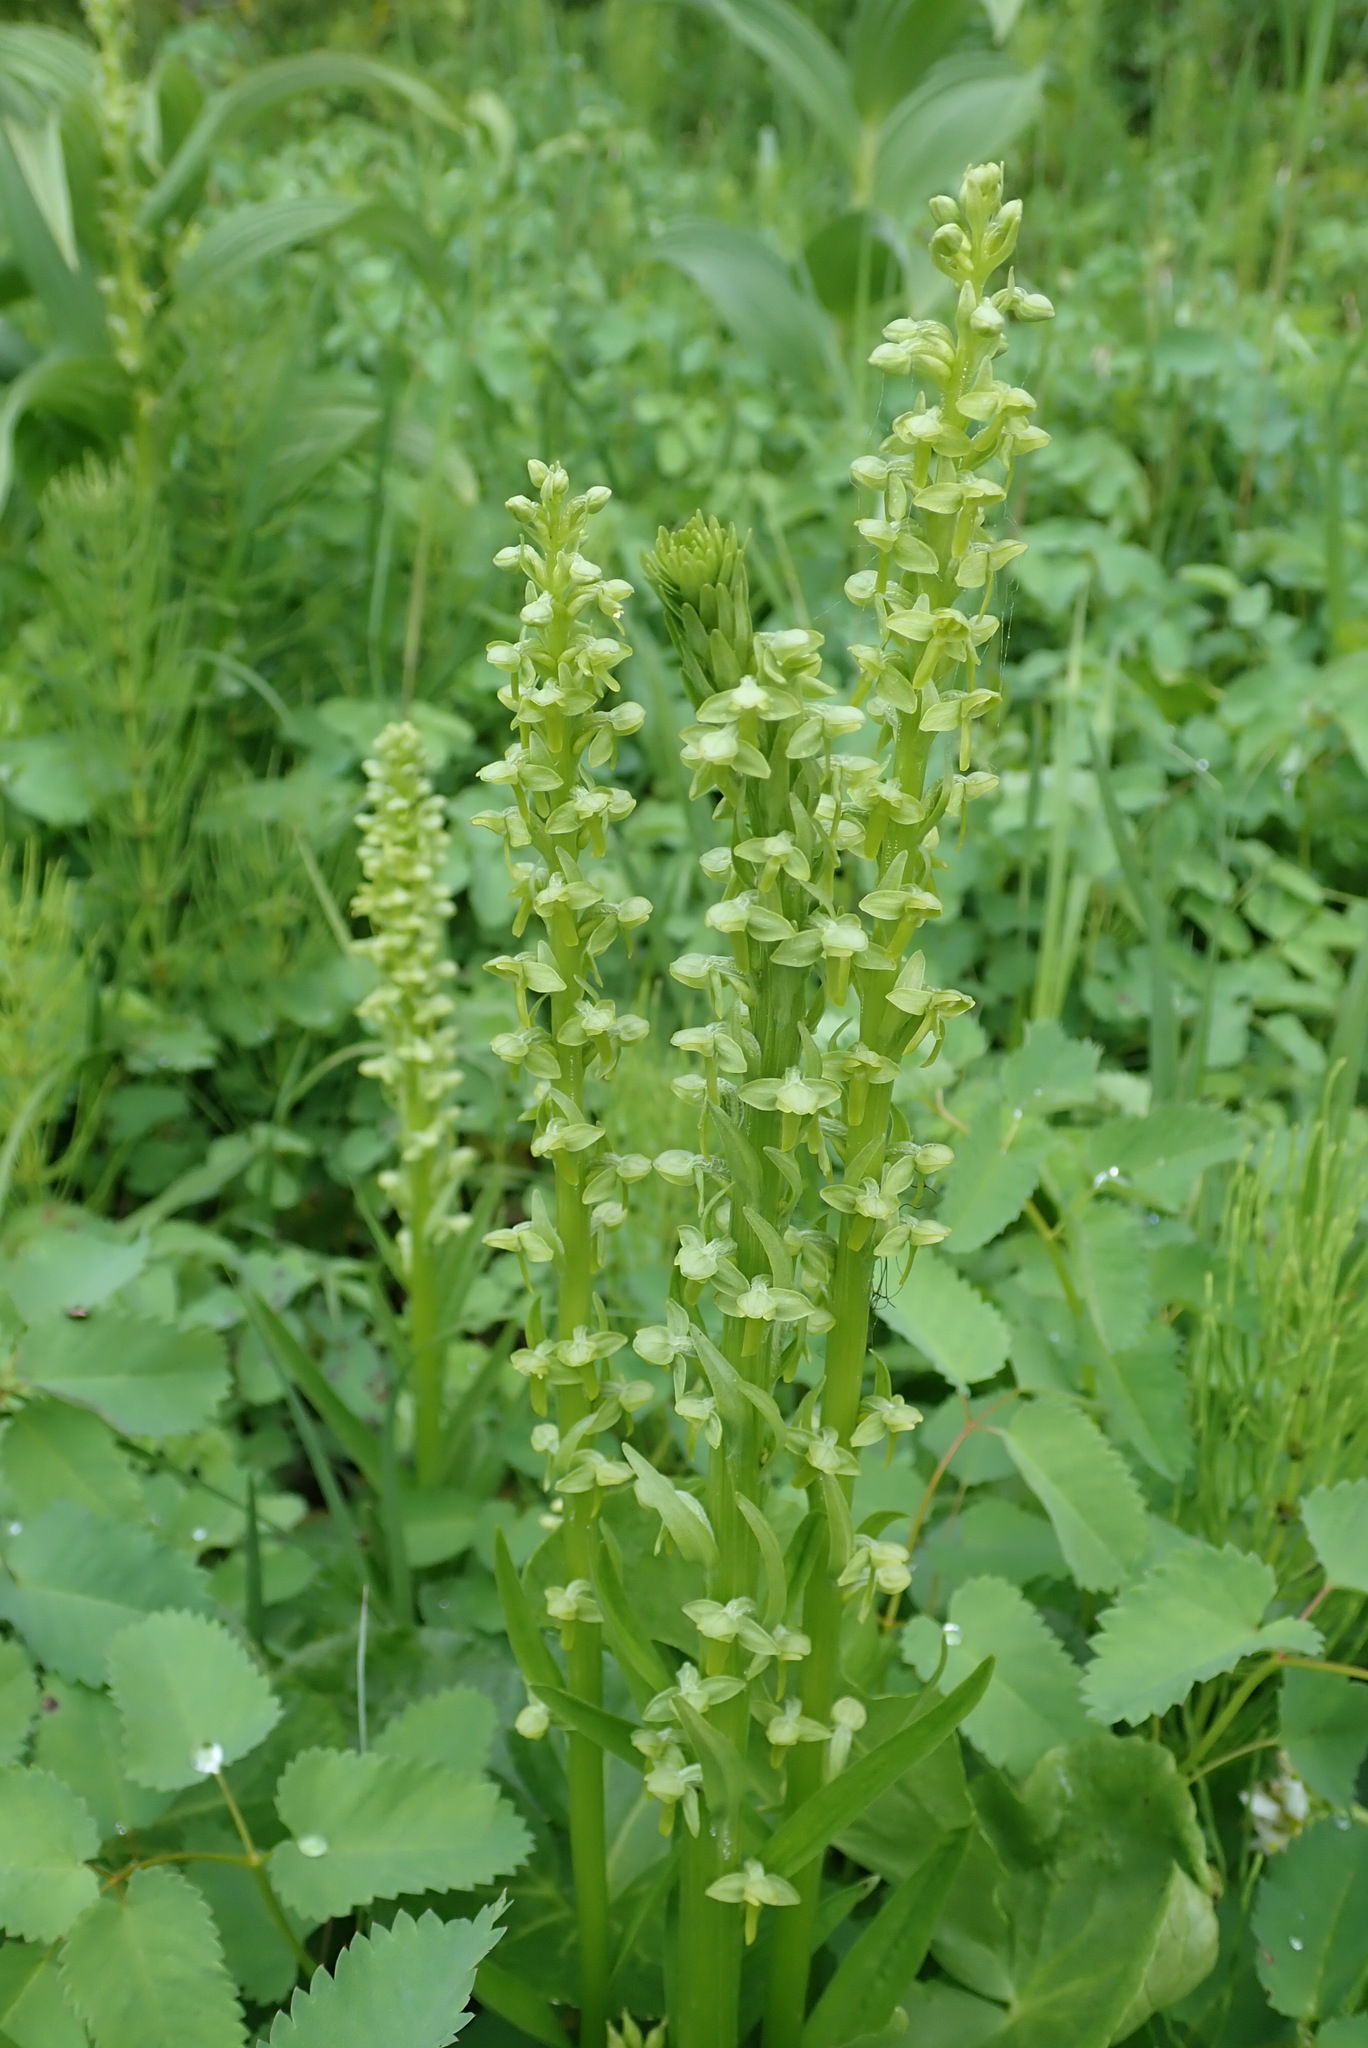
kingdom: Plantae
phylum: Tracheophyta
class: Liliopsida
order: Asparagales
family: Orchidaceae
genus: Platanthera
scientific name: Platanthera stricta
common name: Slender bog orchid
